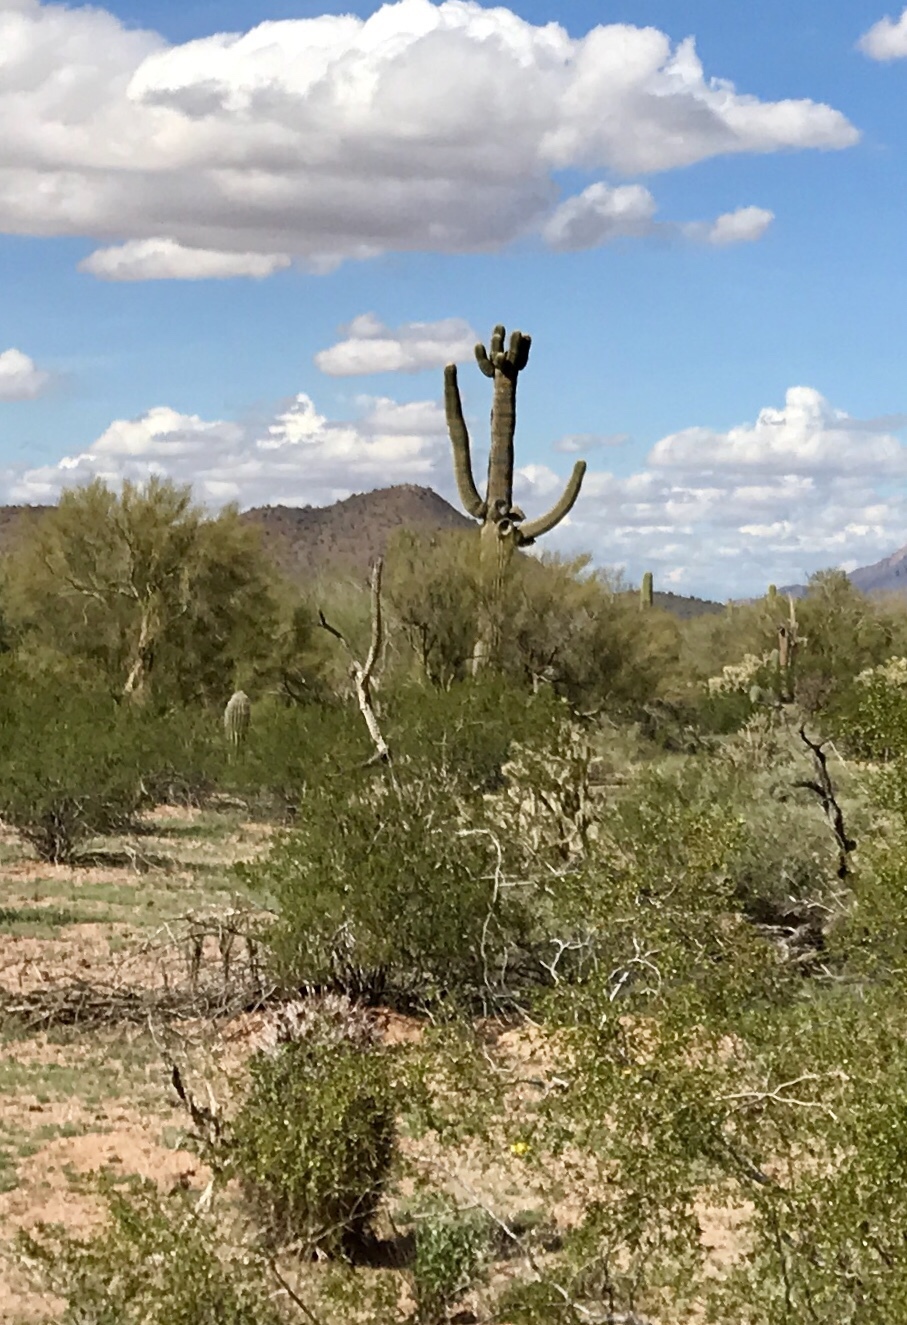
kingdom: Plantae
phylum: Tracheophyta
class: Magnoliopsida
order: Caryophyllales
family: Cactaceae
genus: Carnegiea
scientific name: Carnegiea gigantea
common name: Saguaro
